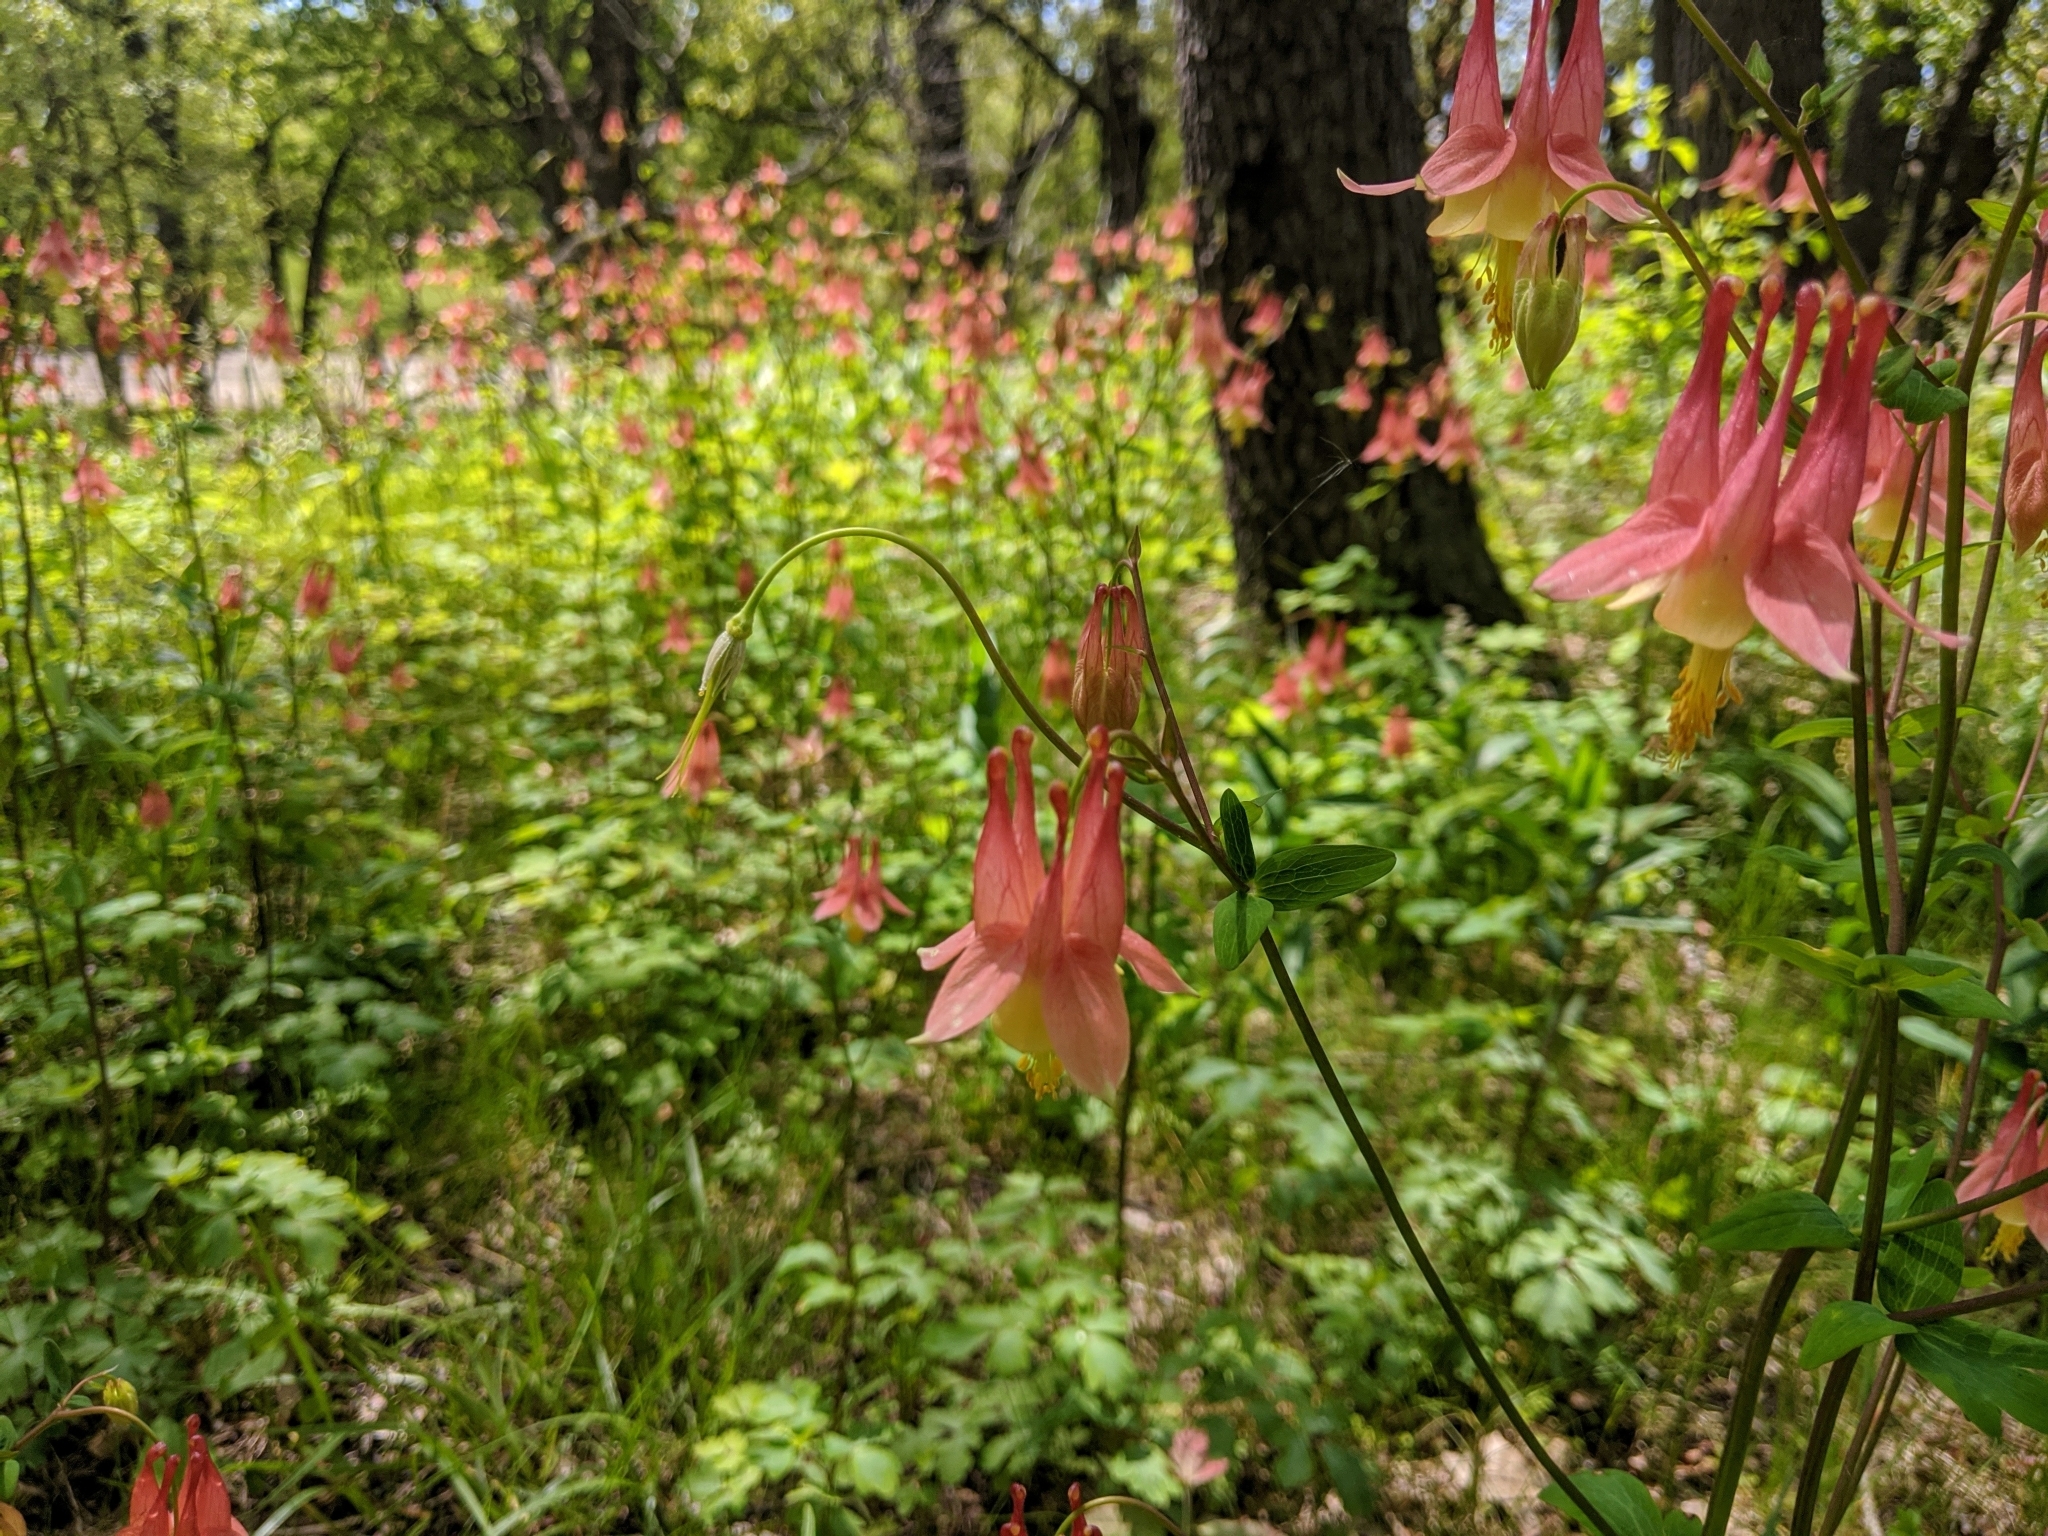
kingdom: Plantae
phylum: Tracheophyta
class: Magnoliopsida
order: Ranunculales
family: Ranunculaceae
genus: Aquilegia
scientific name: Aquilegia canadensis
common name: American columbine
